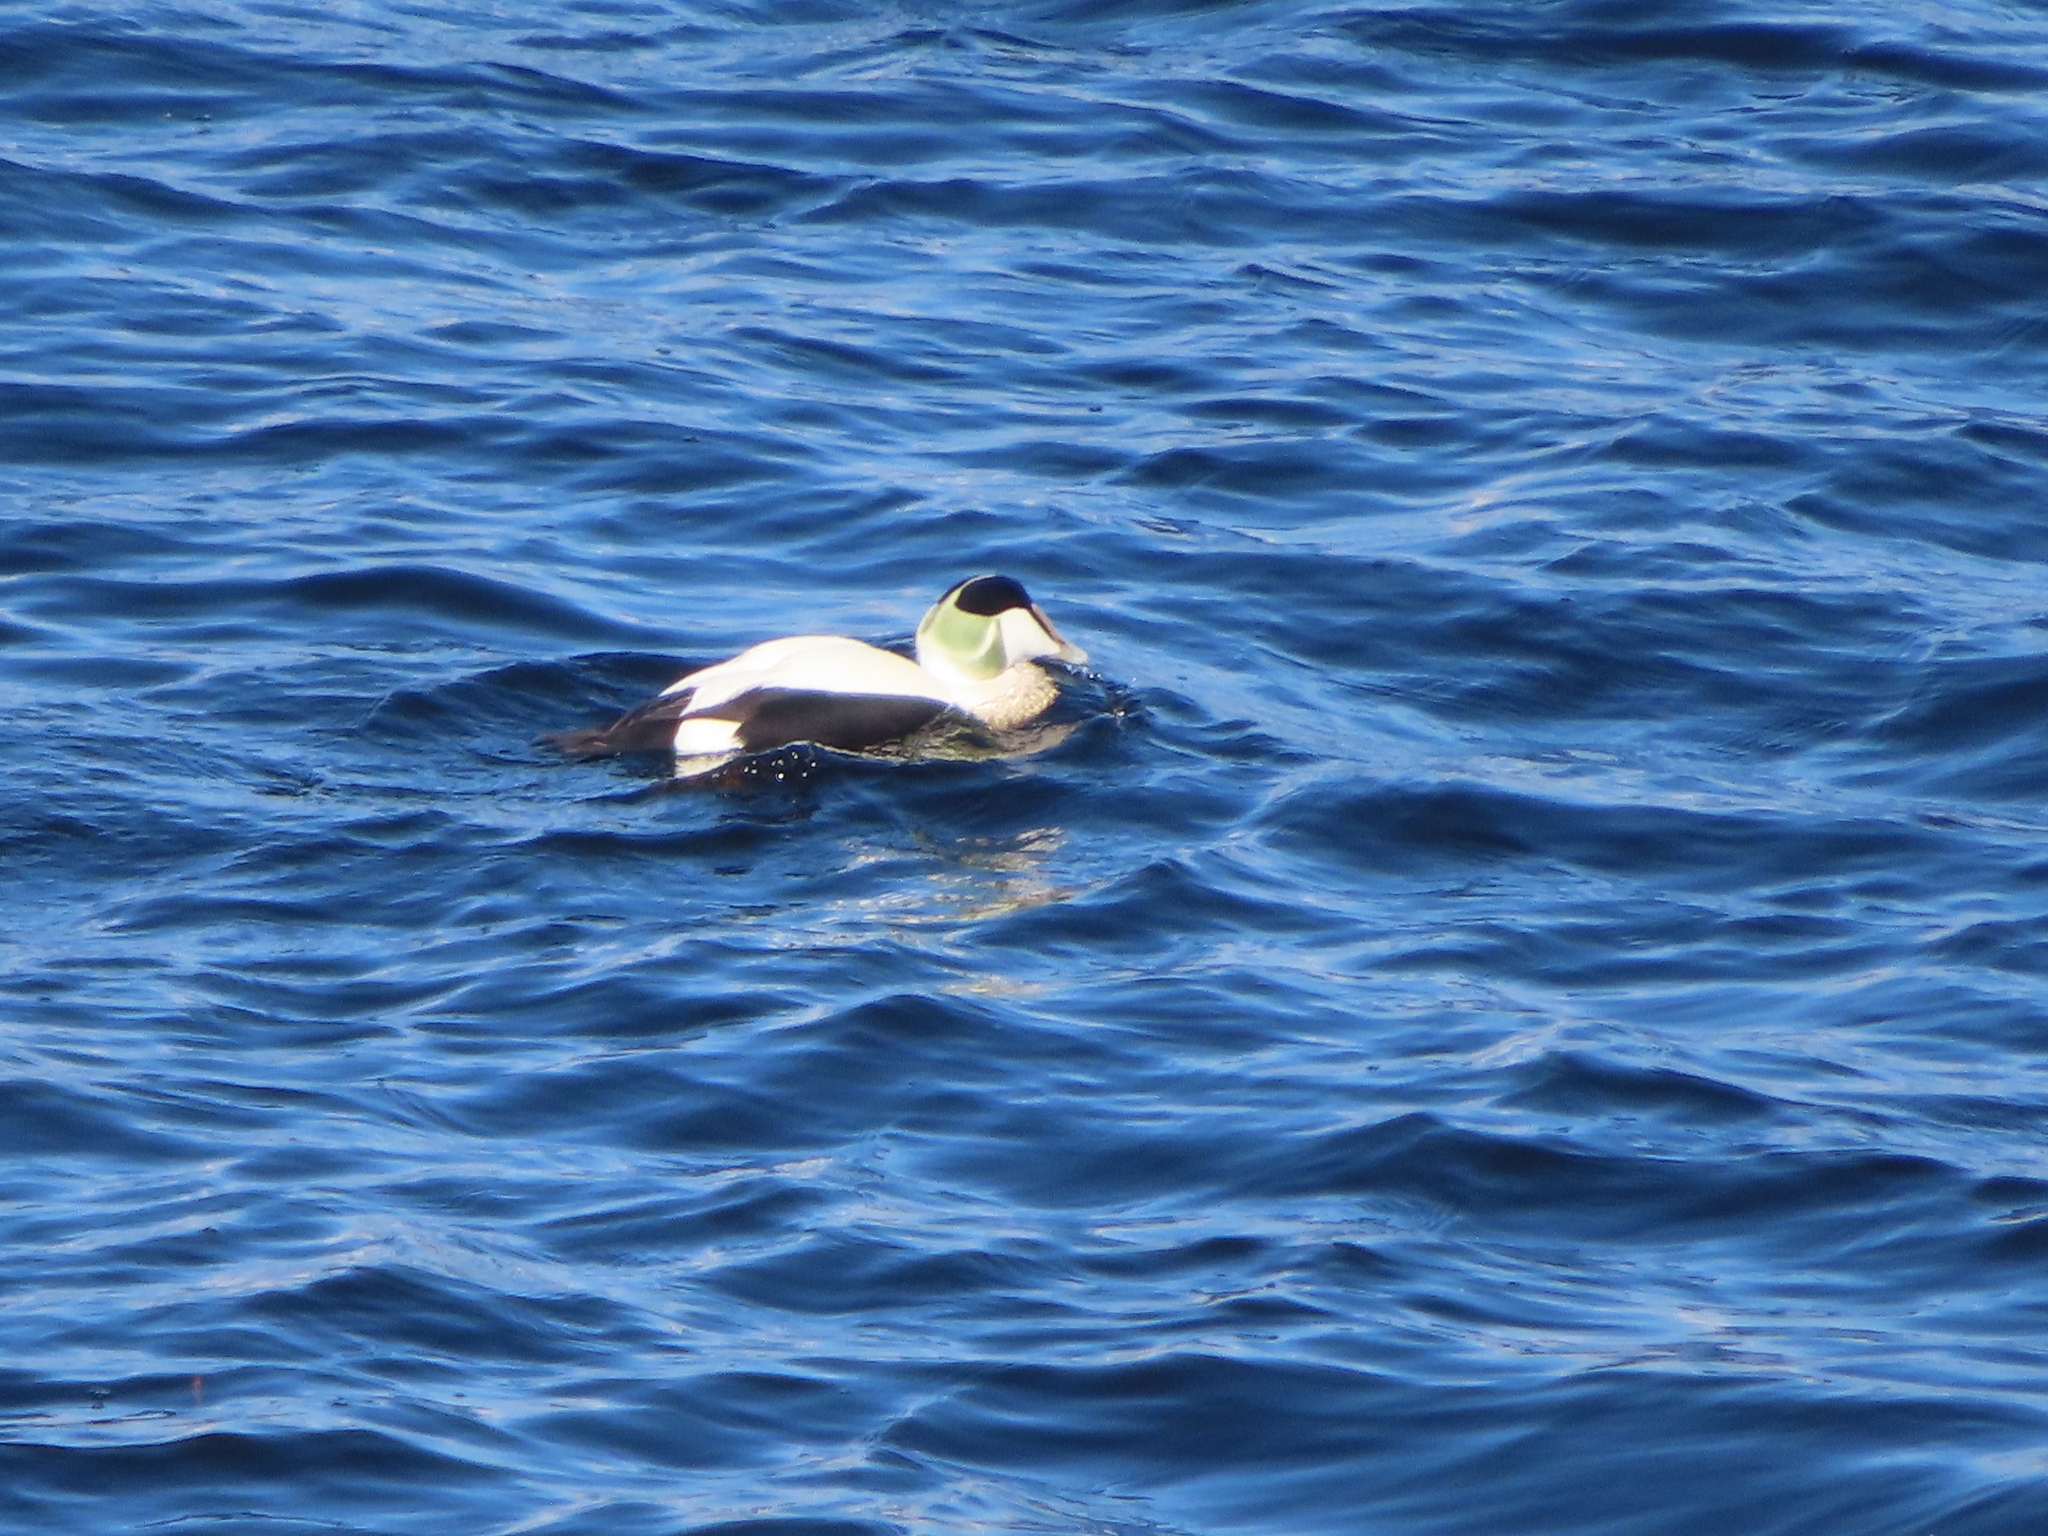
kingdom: Animalia
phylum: Chordata
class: Aves
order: Anseriformes
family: Anatidae
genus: Somateria
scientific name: Somateria mollissima
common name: Common eider
